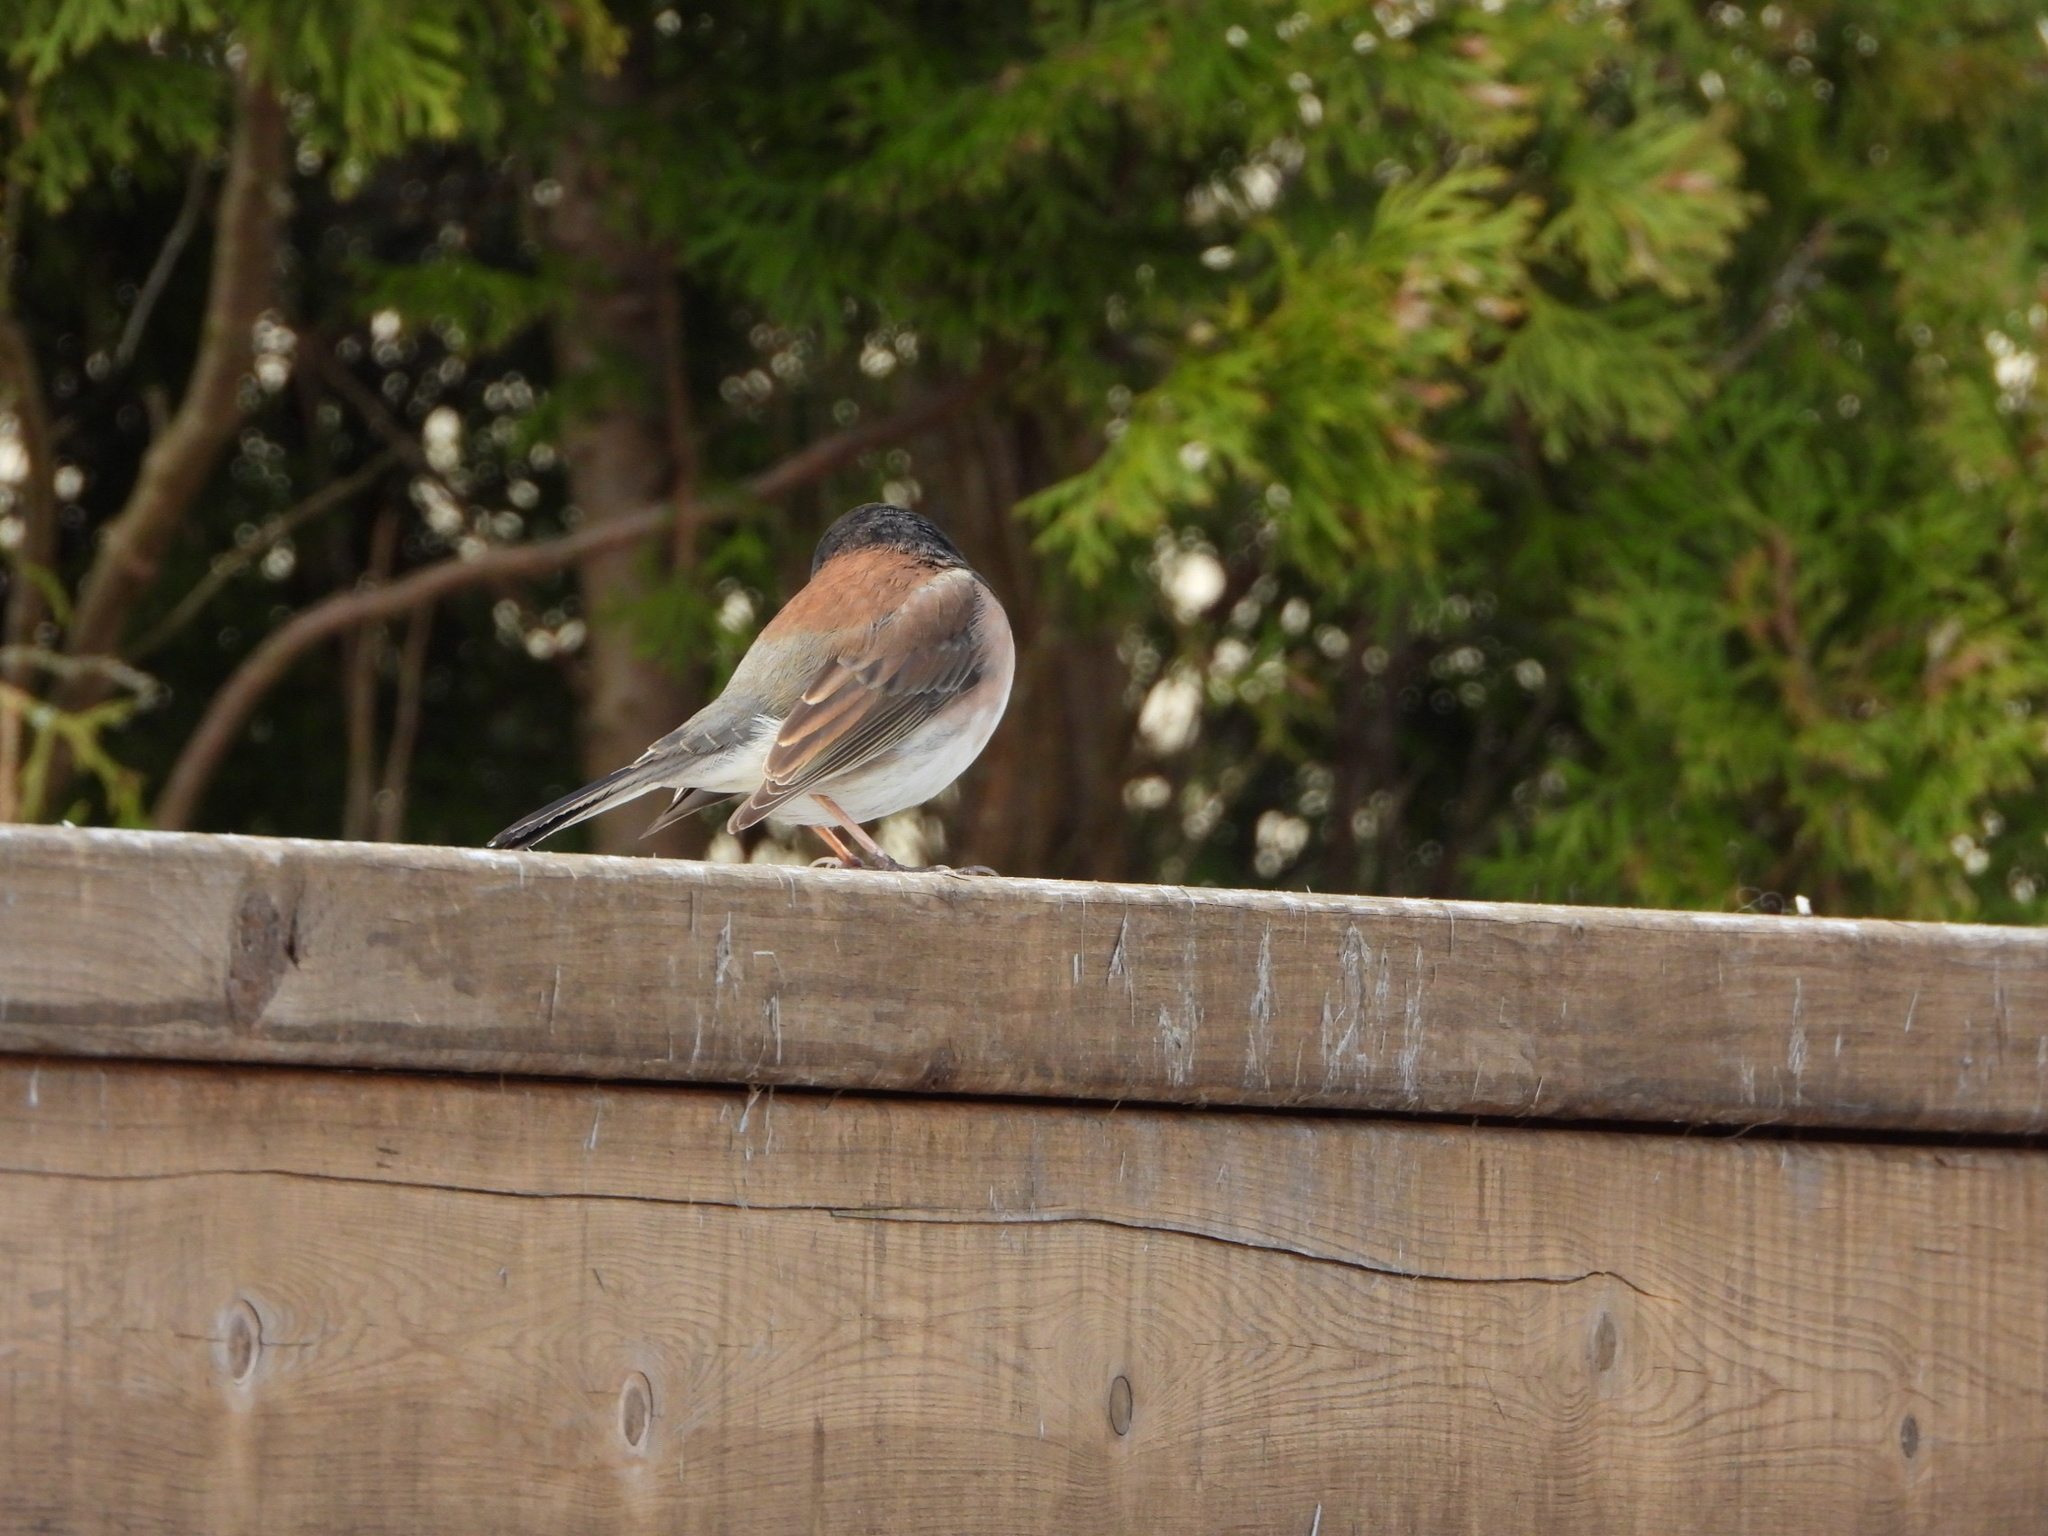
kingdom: Animalia
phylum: Chordata
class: Aves
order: Passeriformes
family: Passerellidae
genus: Junco
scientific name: Junco hyemalis
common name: Dark-eyed junco
